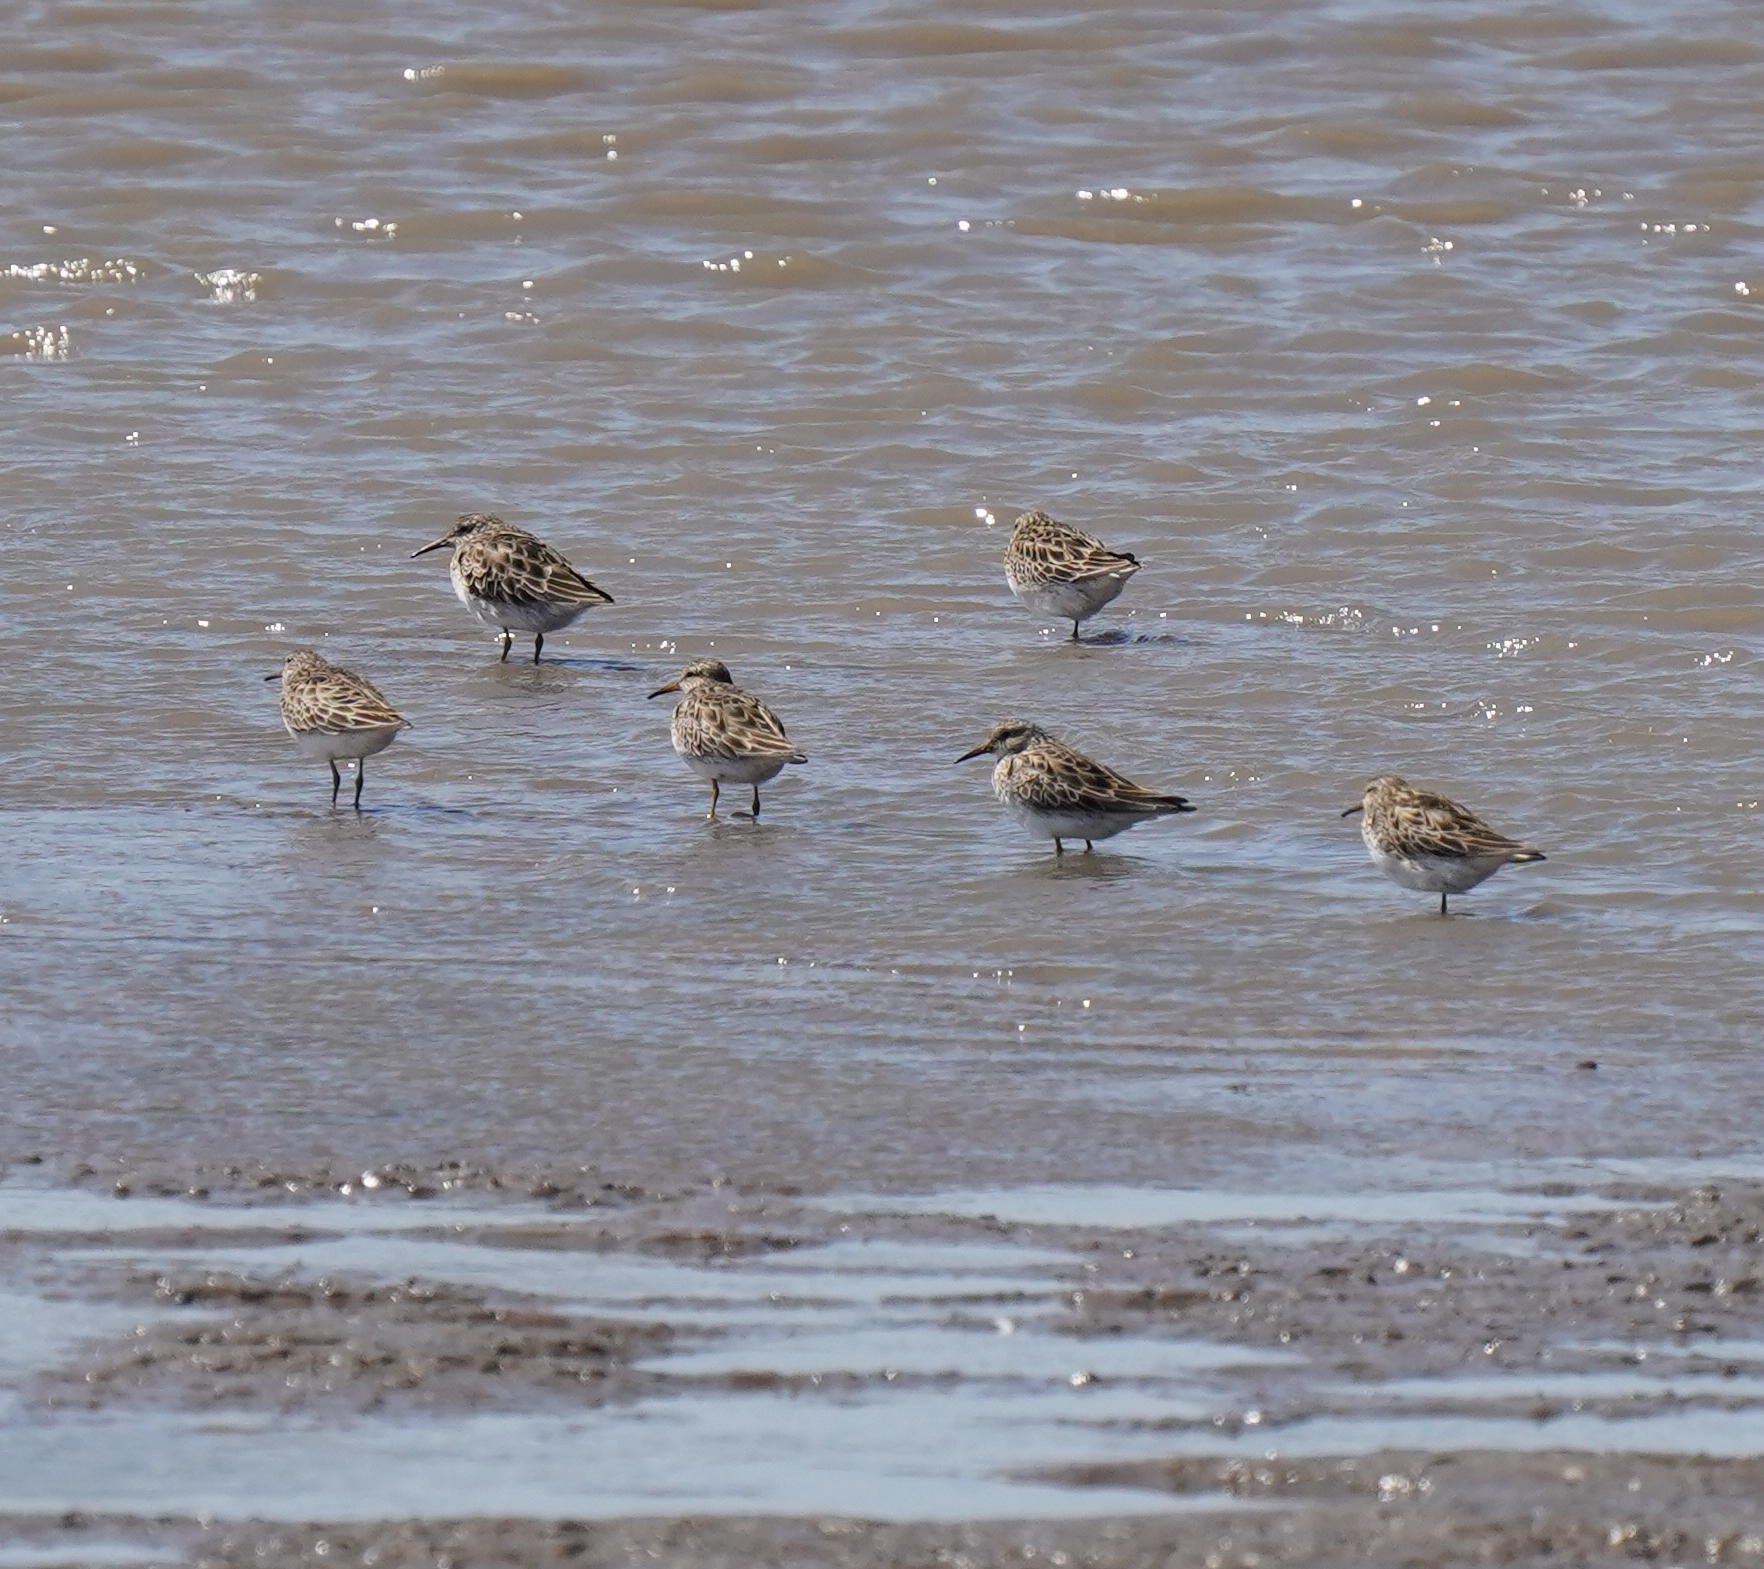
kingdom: Animalia
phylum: Chordata
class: Aves
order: Charadriiformes
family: Scolopacidae
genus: Calidris
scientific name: Calidris melanotos
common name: Pectoral sandpiper
